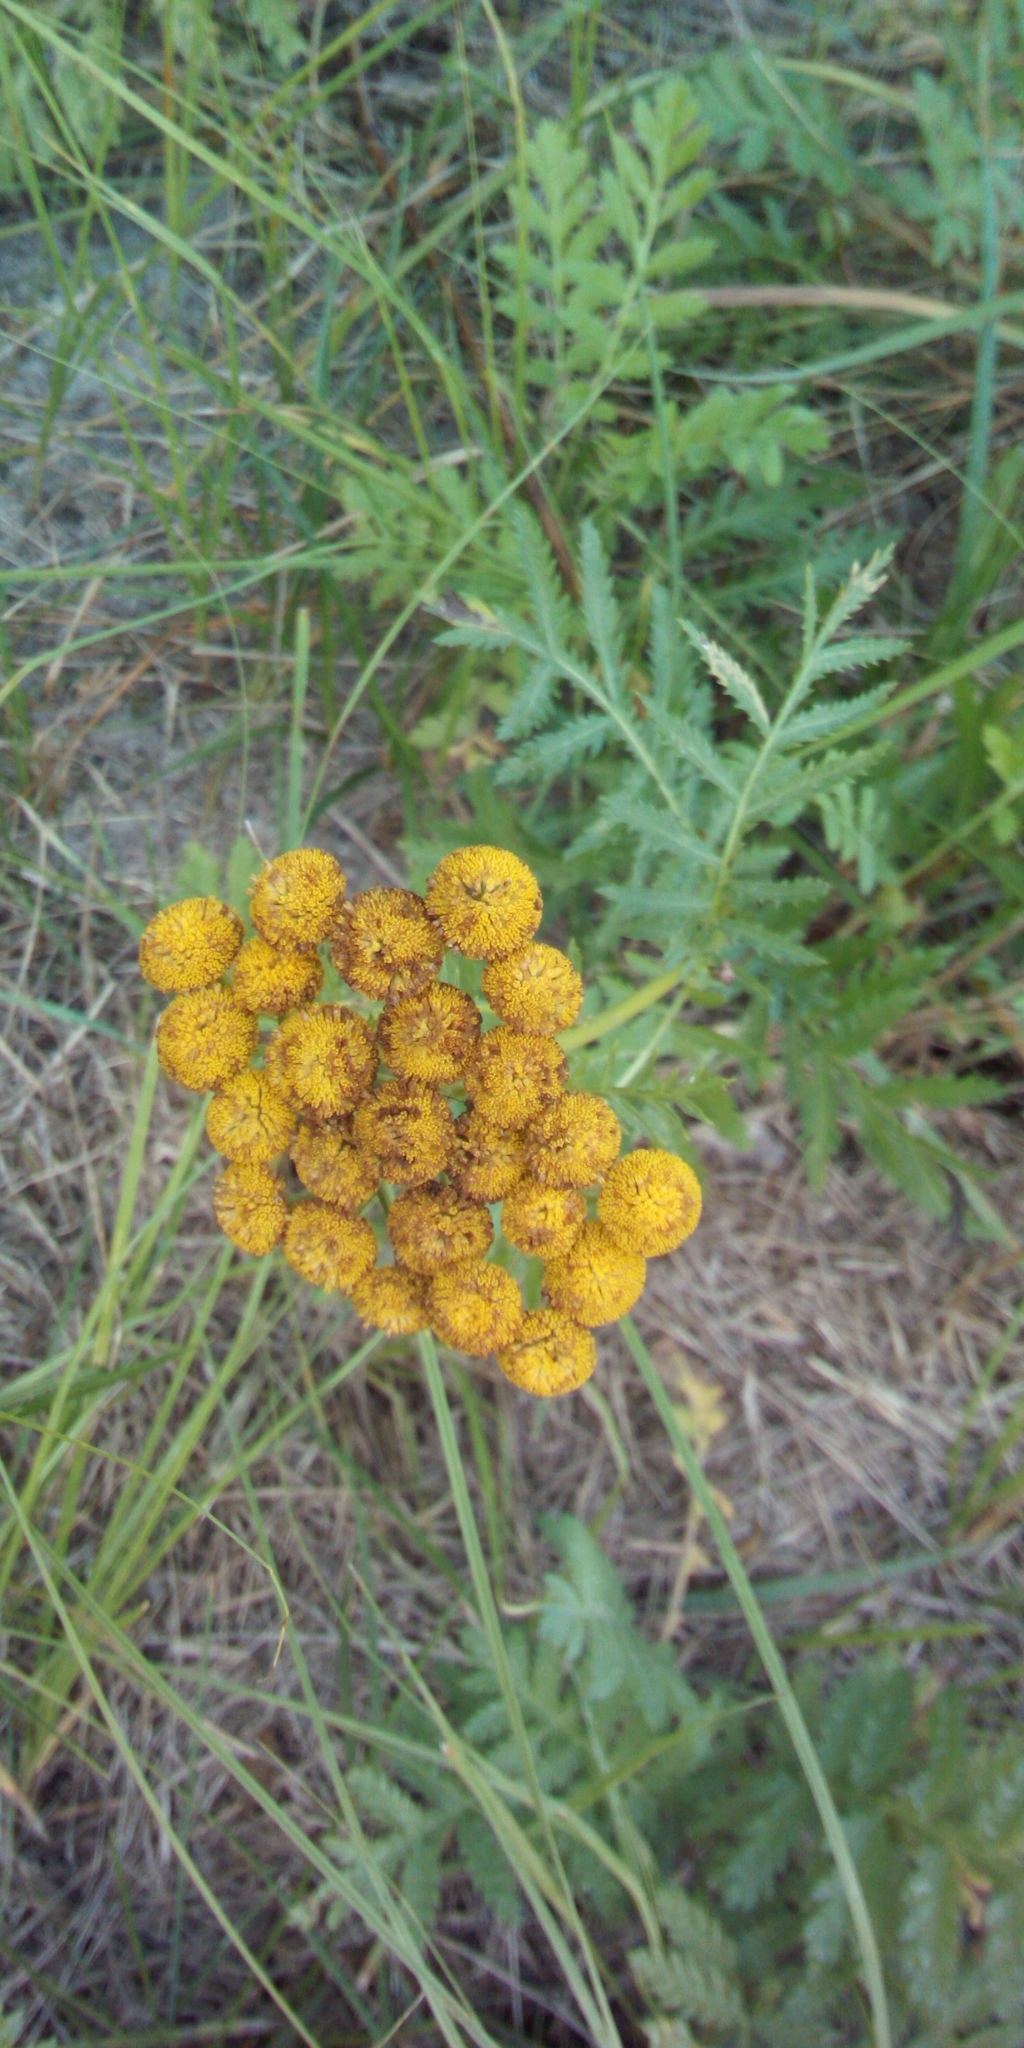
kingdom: Plantae
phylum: Tracheophyta
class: Magnoliopsida
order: Asterales
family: Asteraceae
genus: Tanacetum
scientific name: Tanacetum vulgare
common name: Common tansy
